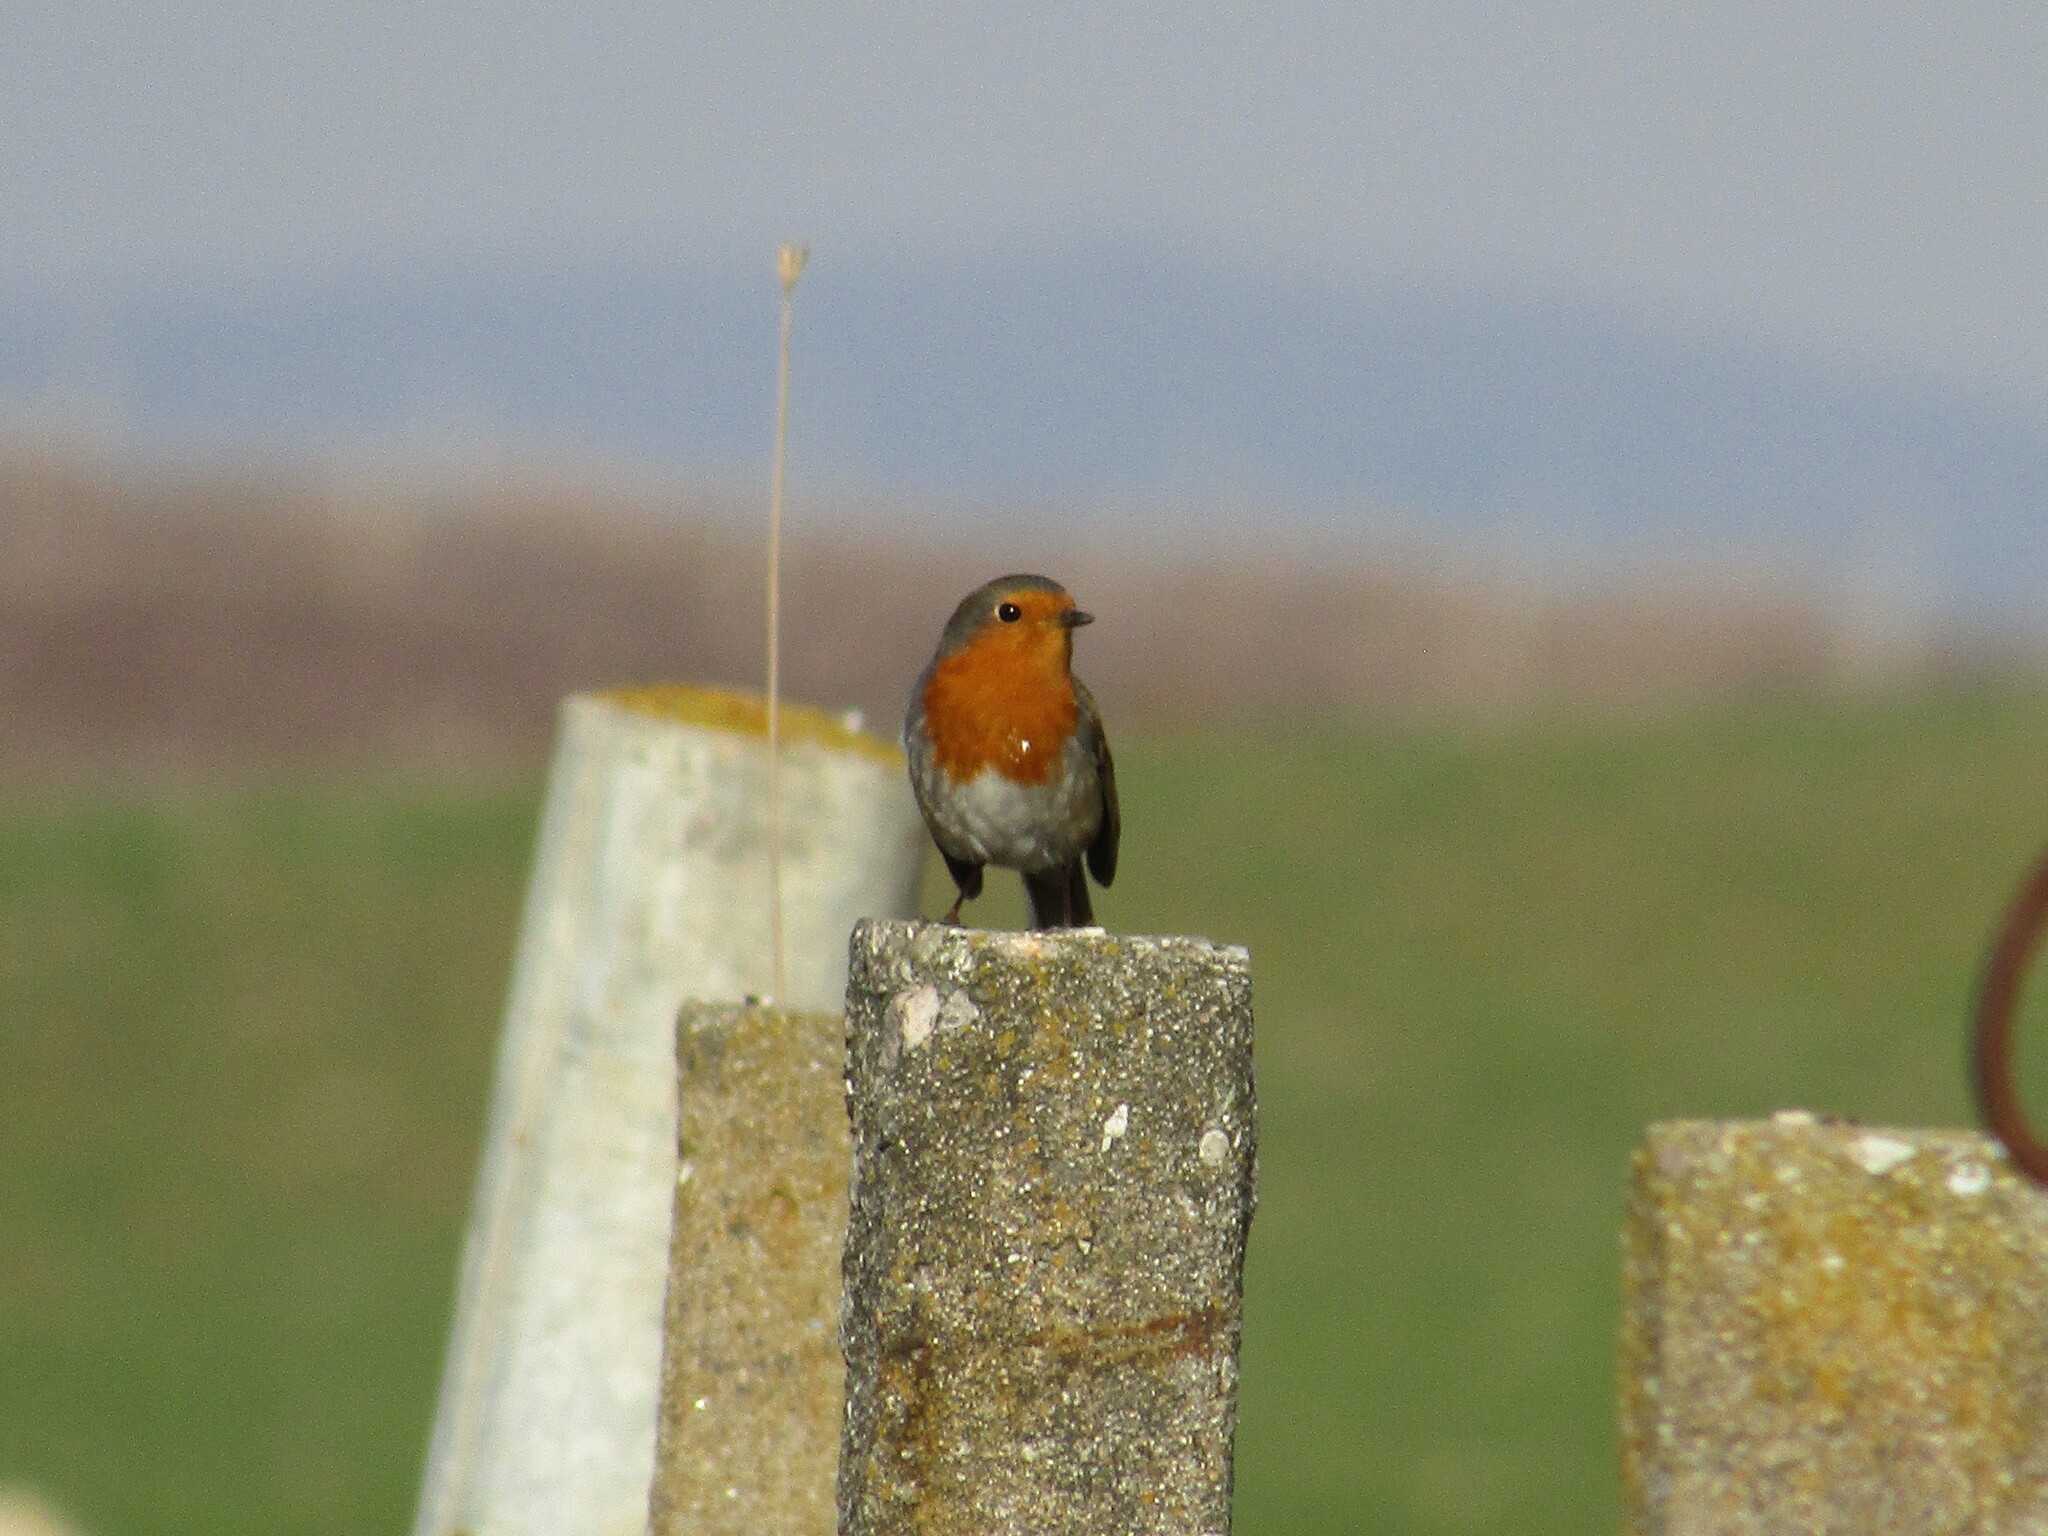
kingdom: Animalia
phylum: Chordata
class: Aves
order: Passeriformes
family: Muscicapidae
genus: Erithacus
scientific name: Erithacus rubecula
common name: European robin
